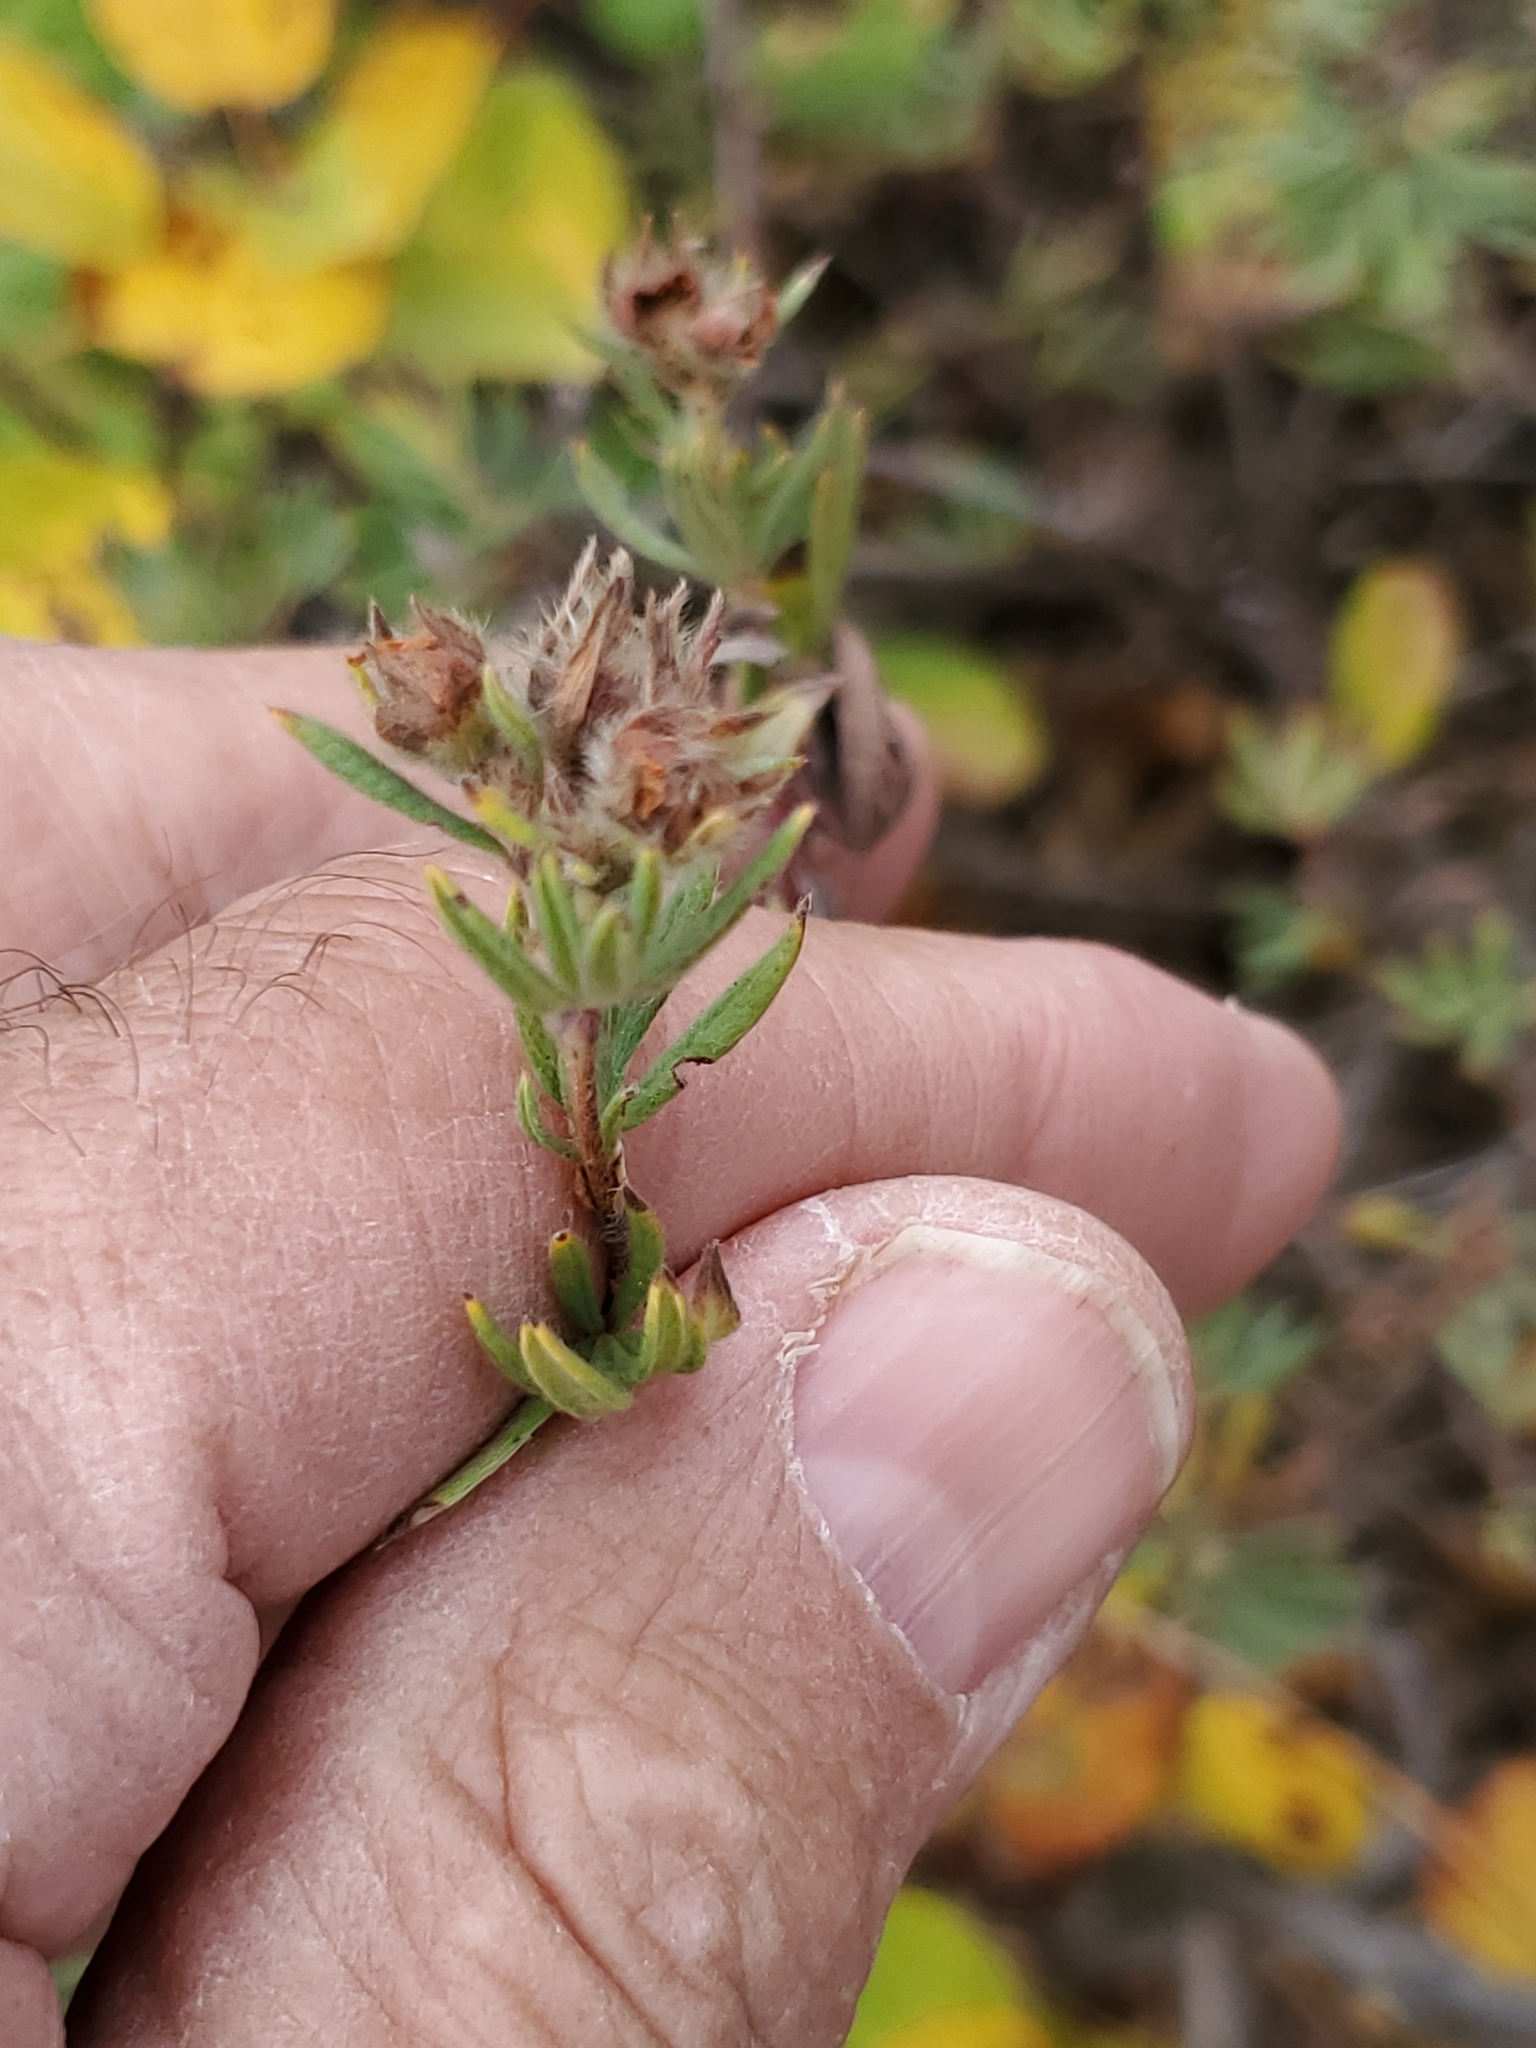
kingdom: Plantae
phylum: Tracheophyta
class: Magnoliopsida
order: Rosales
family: Rosaceae
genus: Dasiphora
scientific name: Dasiphora fruticosa
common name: Shrubby cinquefoil
